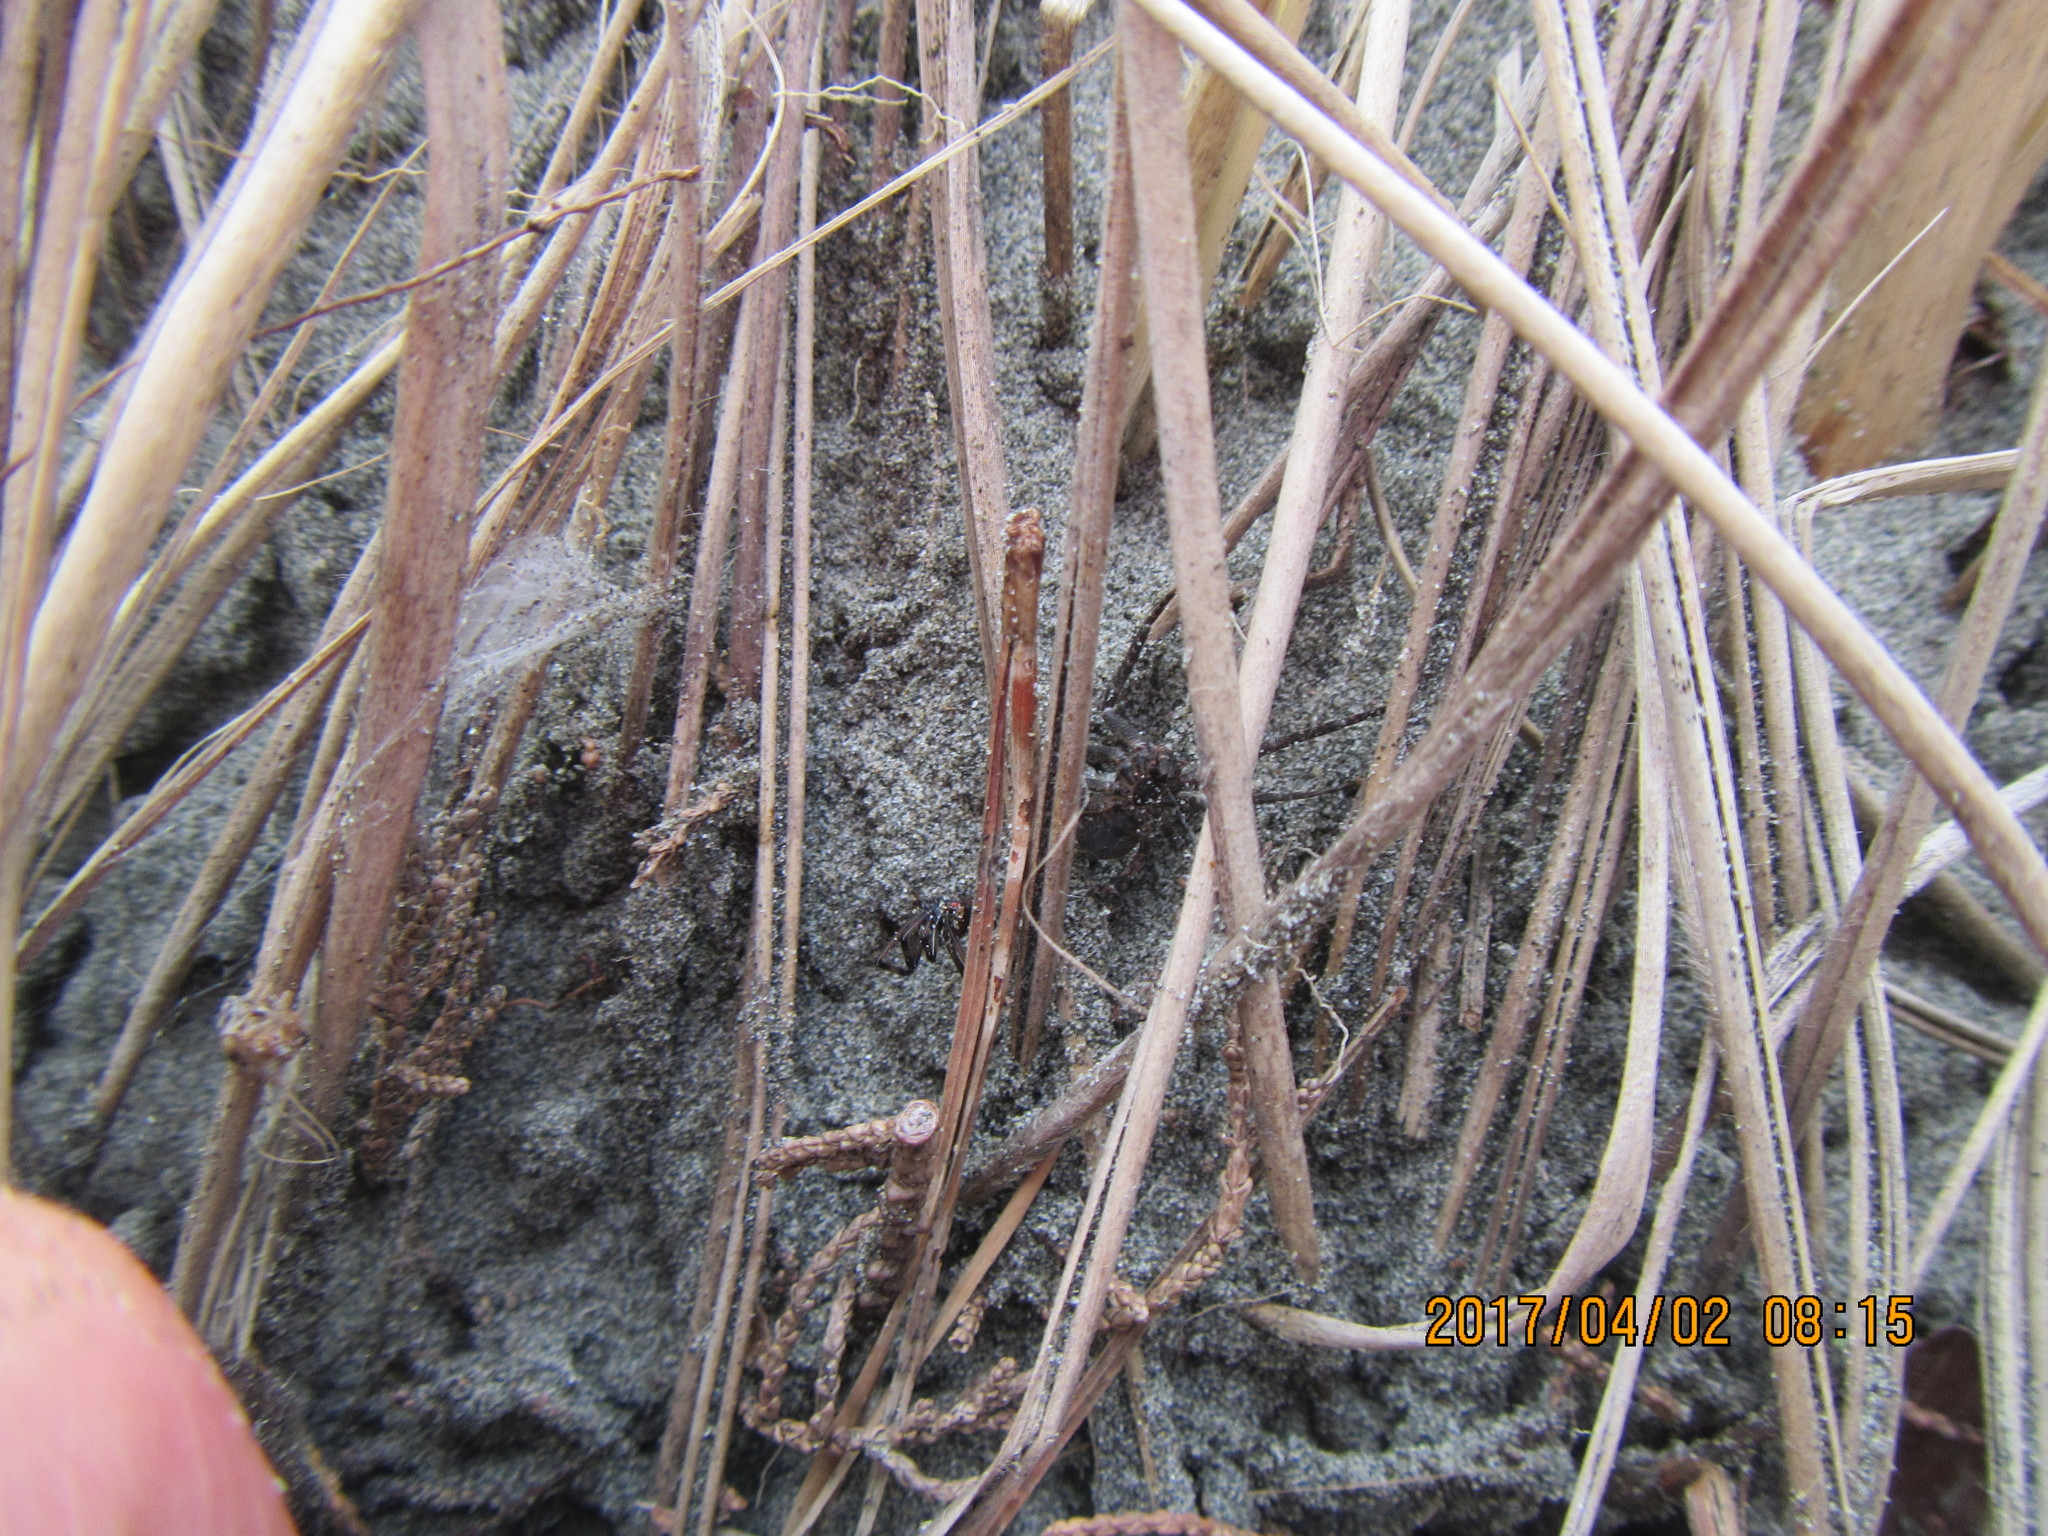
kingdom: Animalia
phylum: Arthropoda
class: Arachnida
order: Araneae
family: Thomisidae
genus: Sidymella
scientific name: Sidymella trapezia
